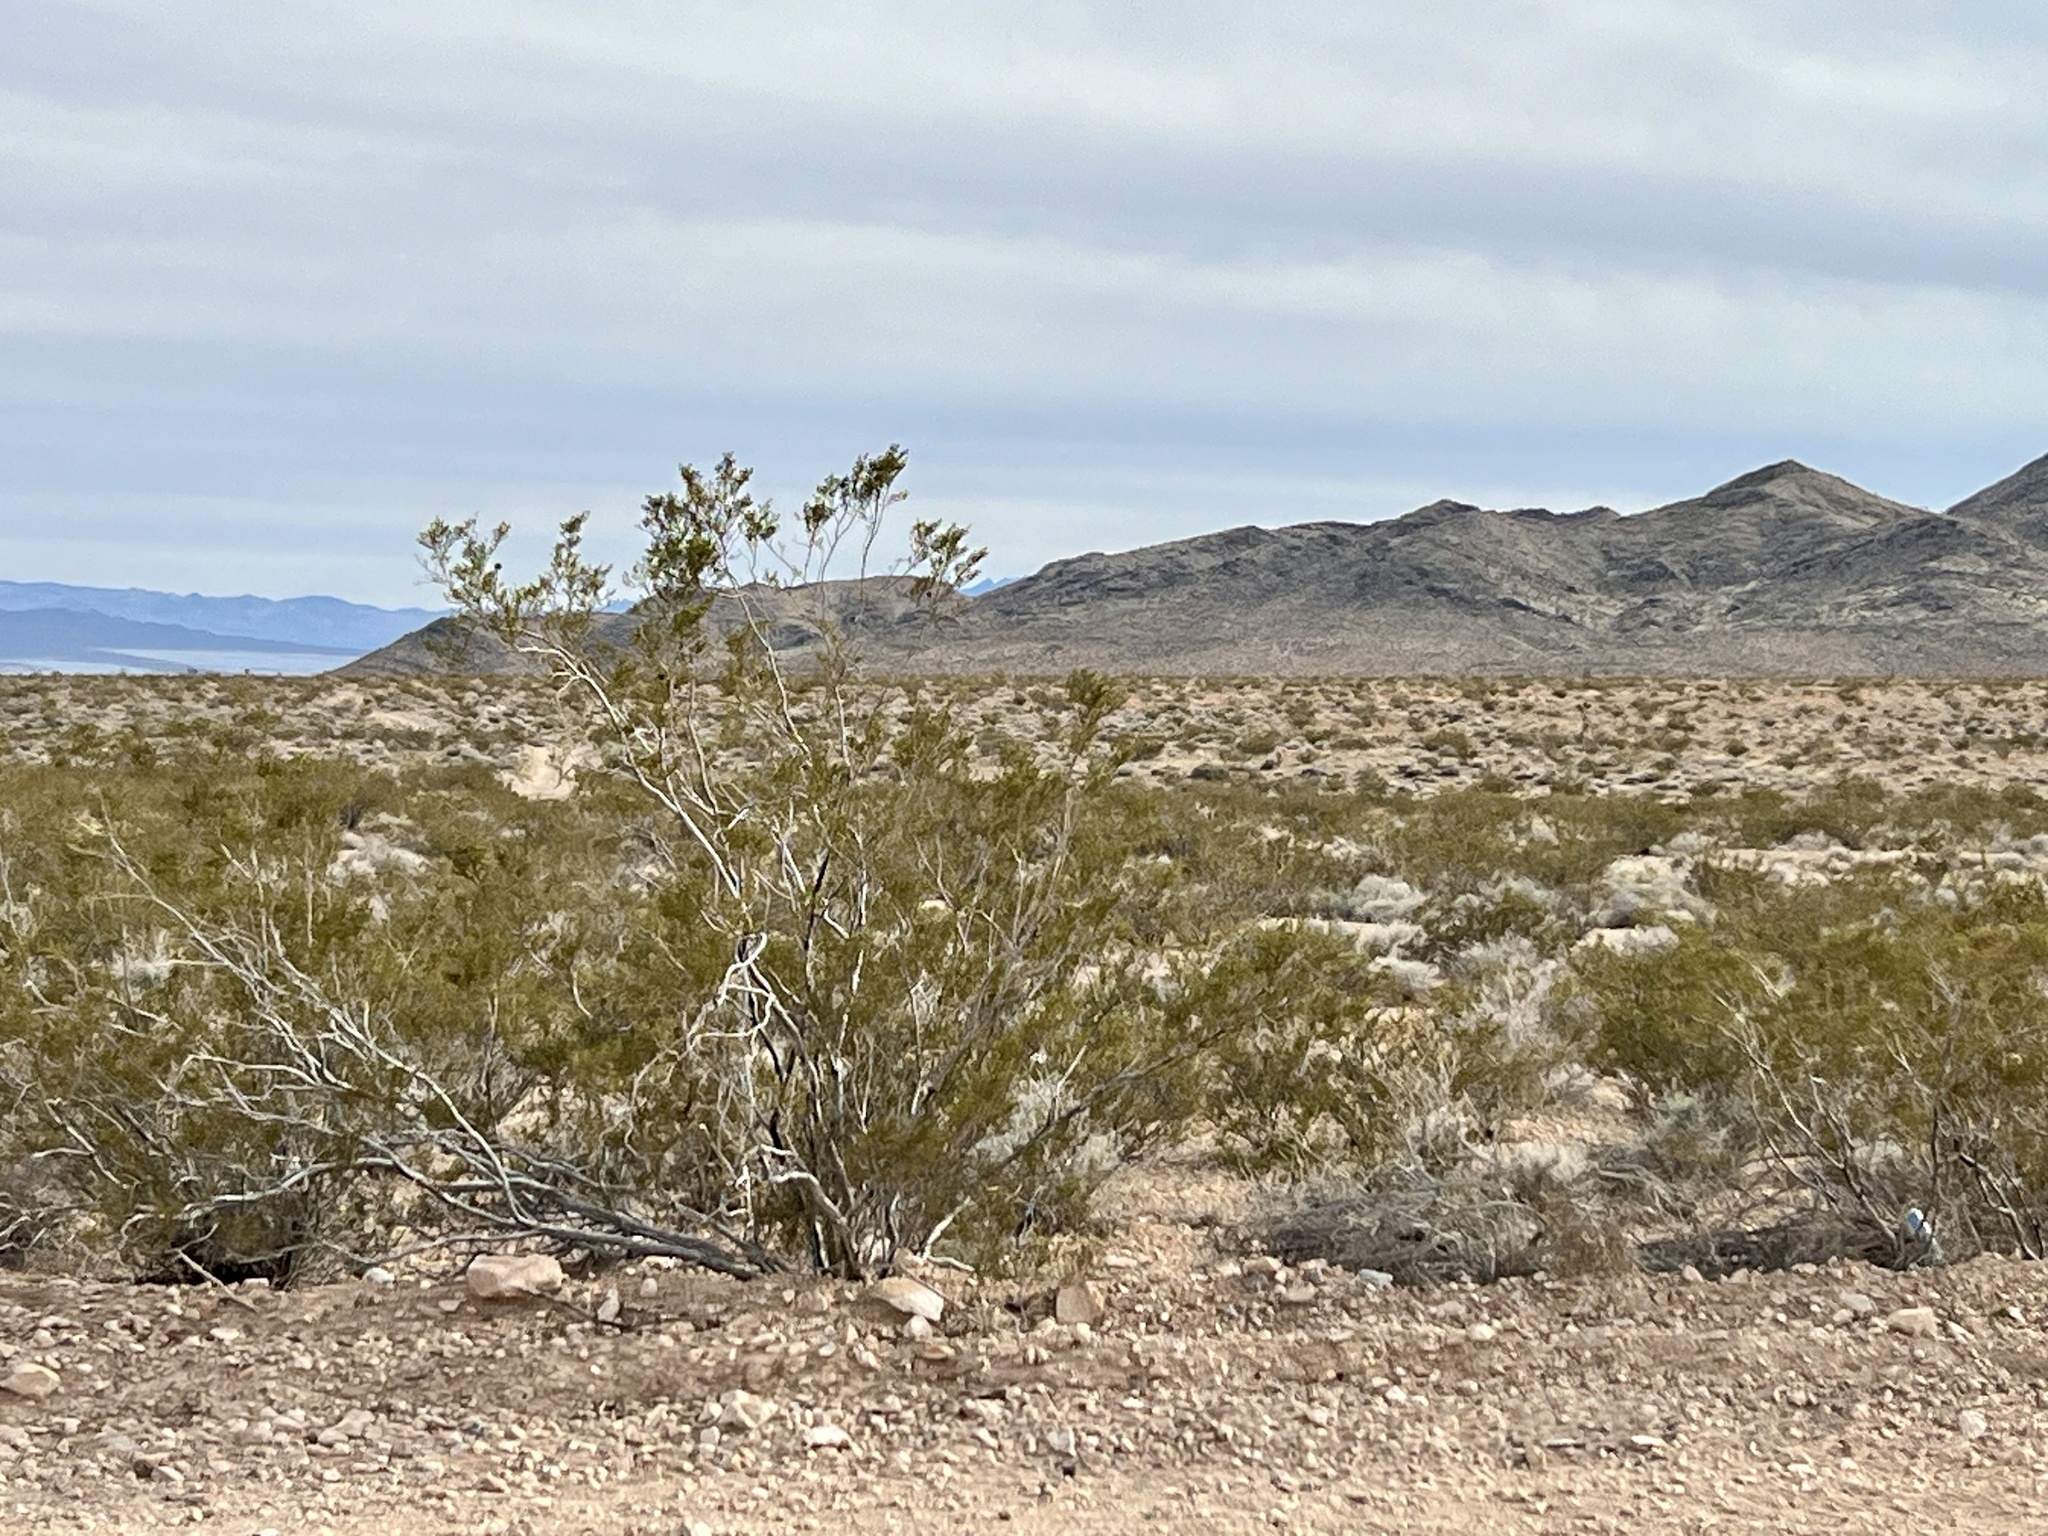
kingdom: Plantae
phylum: Tracheophyta
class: Magnoliopsida
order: Zygophyllales
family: Zygophyllaceae
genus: Larrea
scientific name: Larrea tridentata
